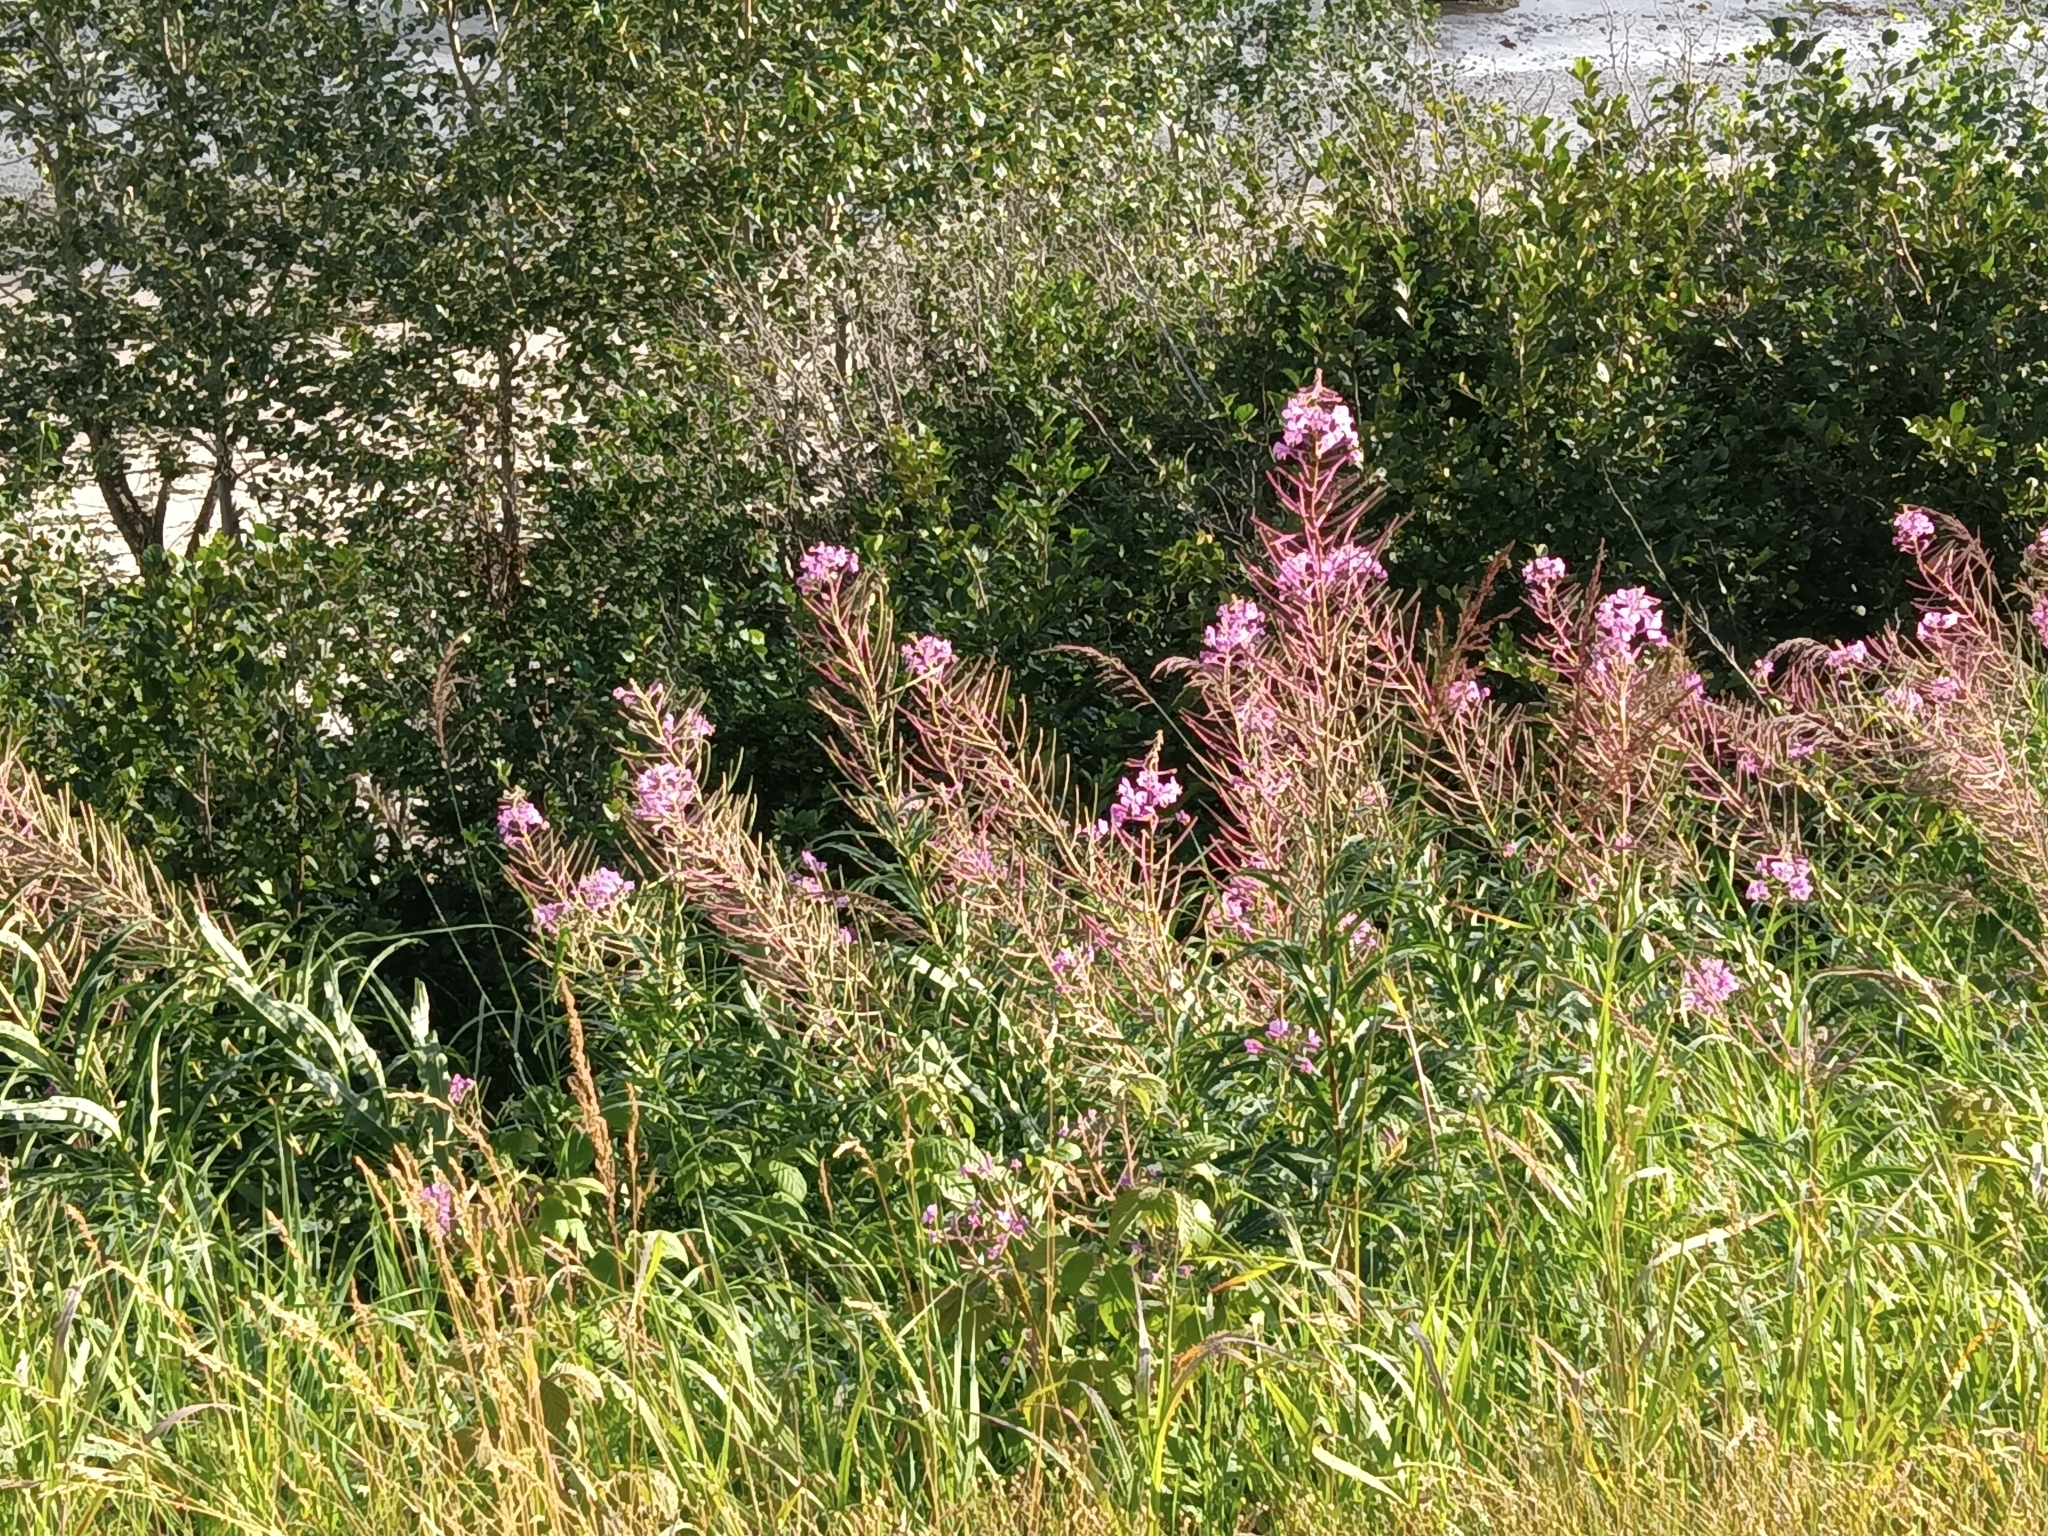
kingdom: Plantae
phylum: Tracheophyta
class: Magnoliopsida
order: Myrtales
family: Onagraceae
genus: Chamaenerion
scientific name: Chamaenerion angustifolium
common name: Fireweed
